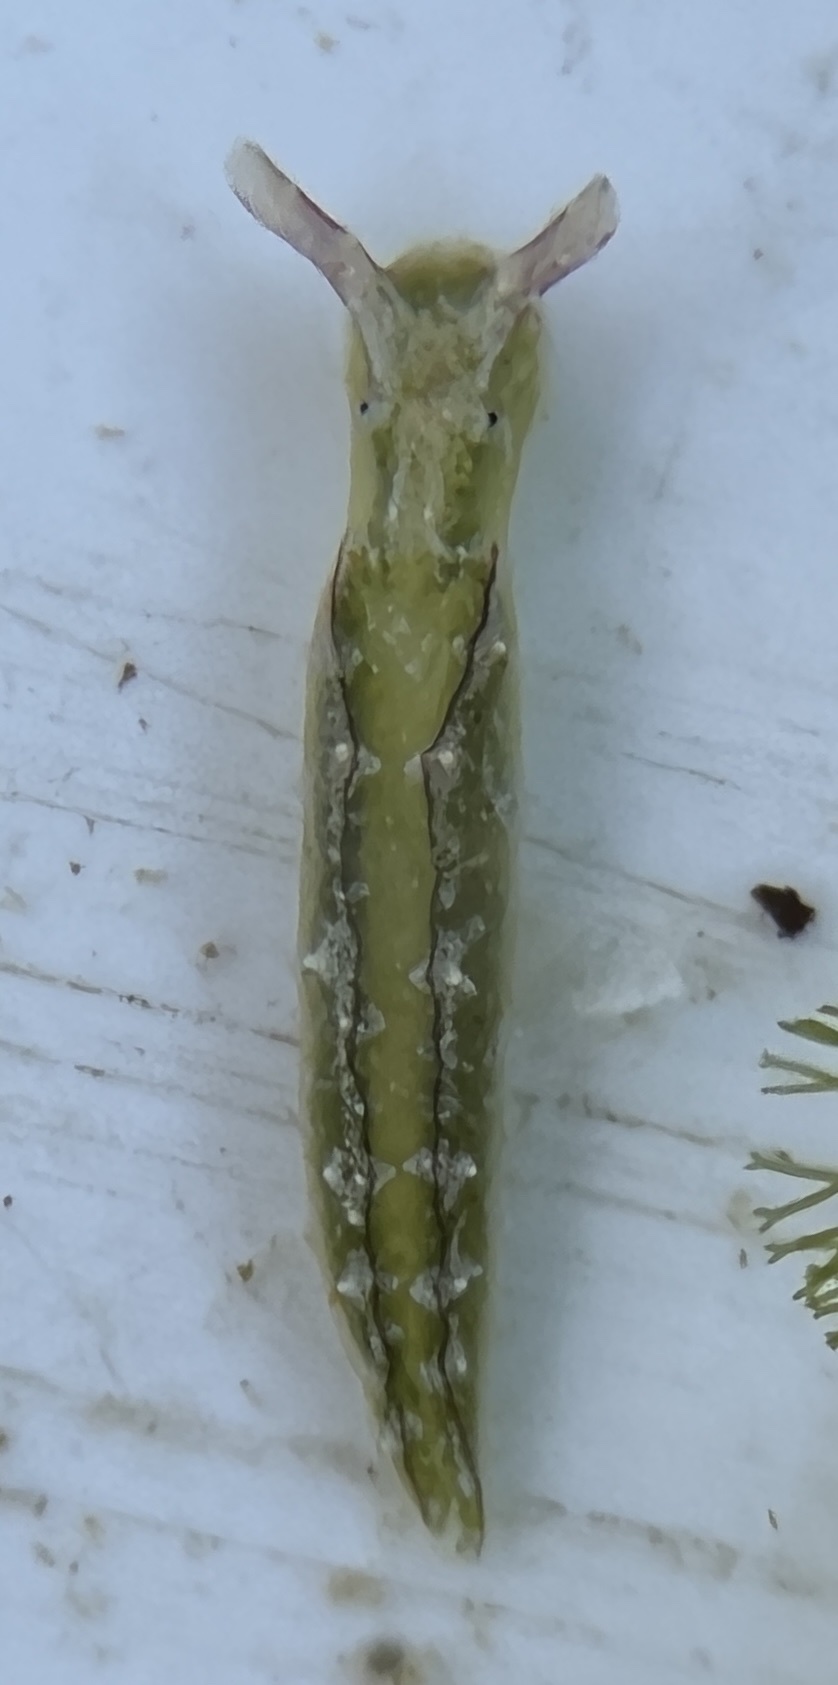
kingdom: Animalia
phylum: Mollusca
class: Gastropoda
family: Plakobranchidae
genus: Elysia
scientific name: Elysia subornata
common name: Ruffled elysia
